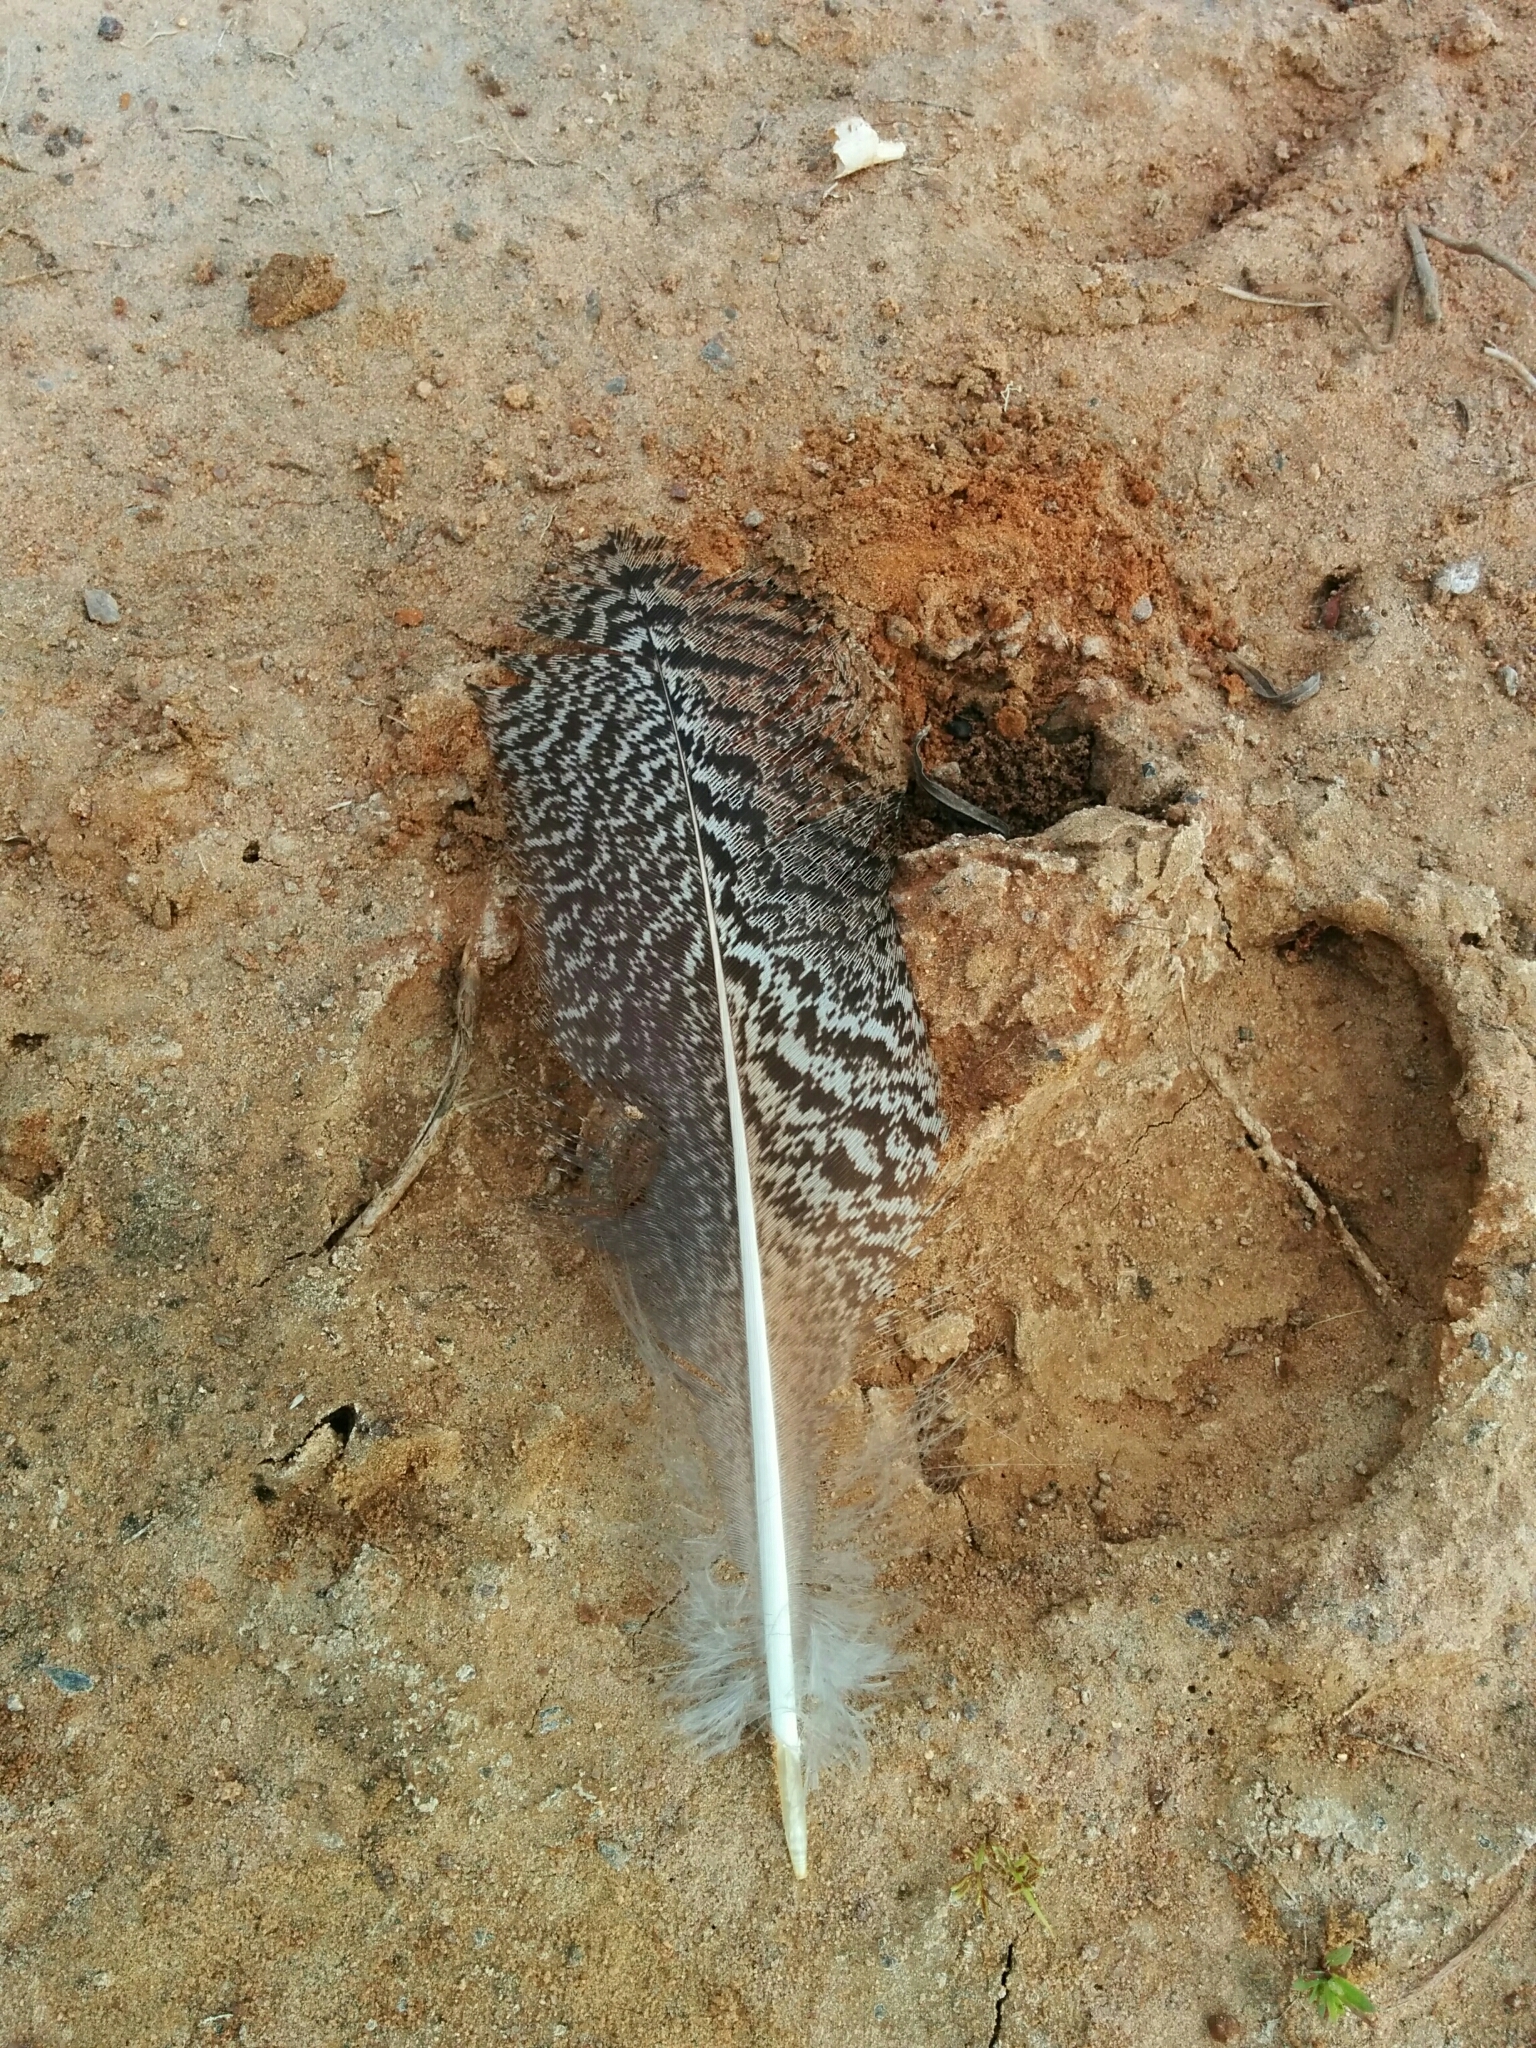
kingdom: Animalia
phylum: Chordata
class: Aves
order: Galliformes
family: Phasianidae
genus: Pavo
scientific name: Pavo cristatus
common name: Indian peafowl
